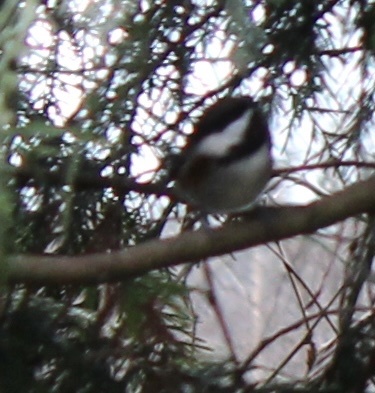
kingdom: Animalia
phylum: Chordata
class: Aves
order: Passeriformes
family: Paridae
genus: Poecile
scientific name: Poecile rufescens
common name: Chestnut-backed chickadee
